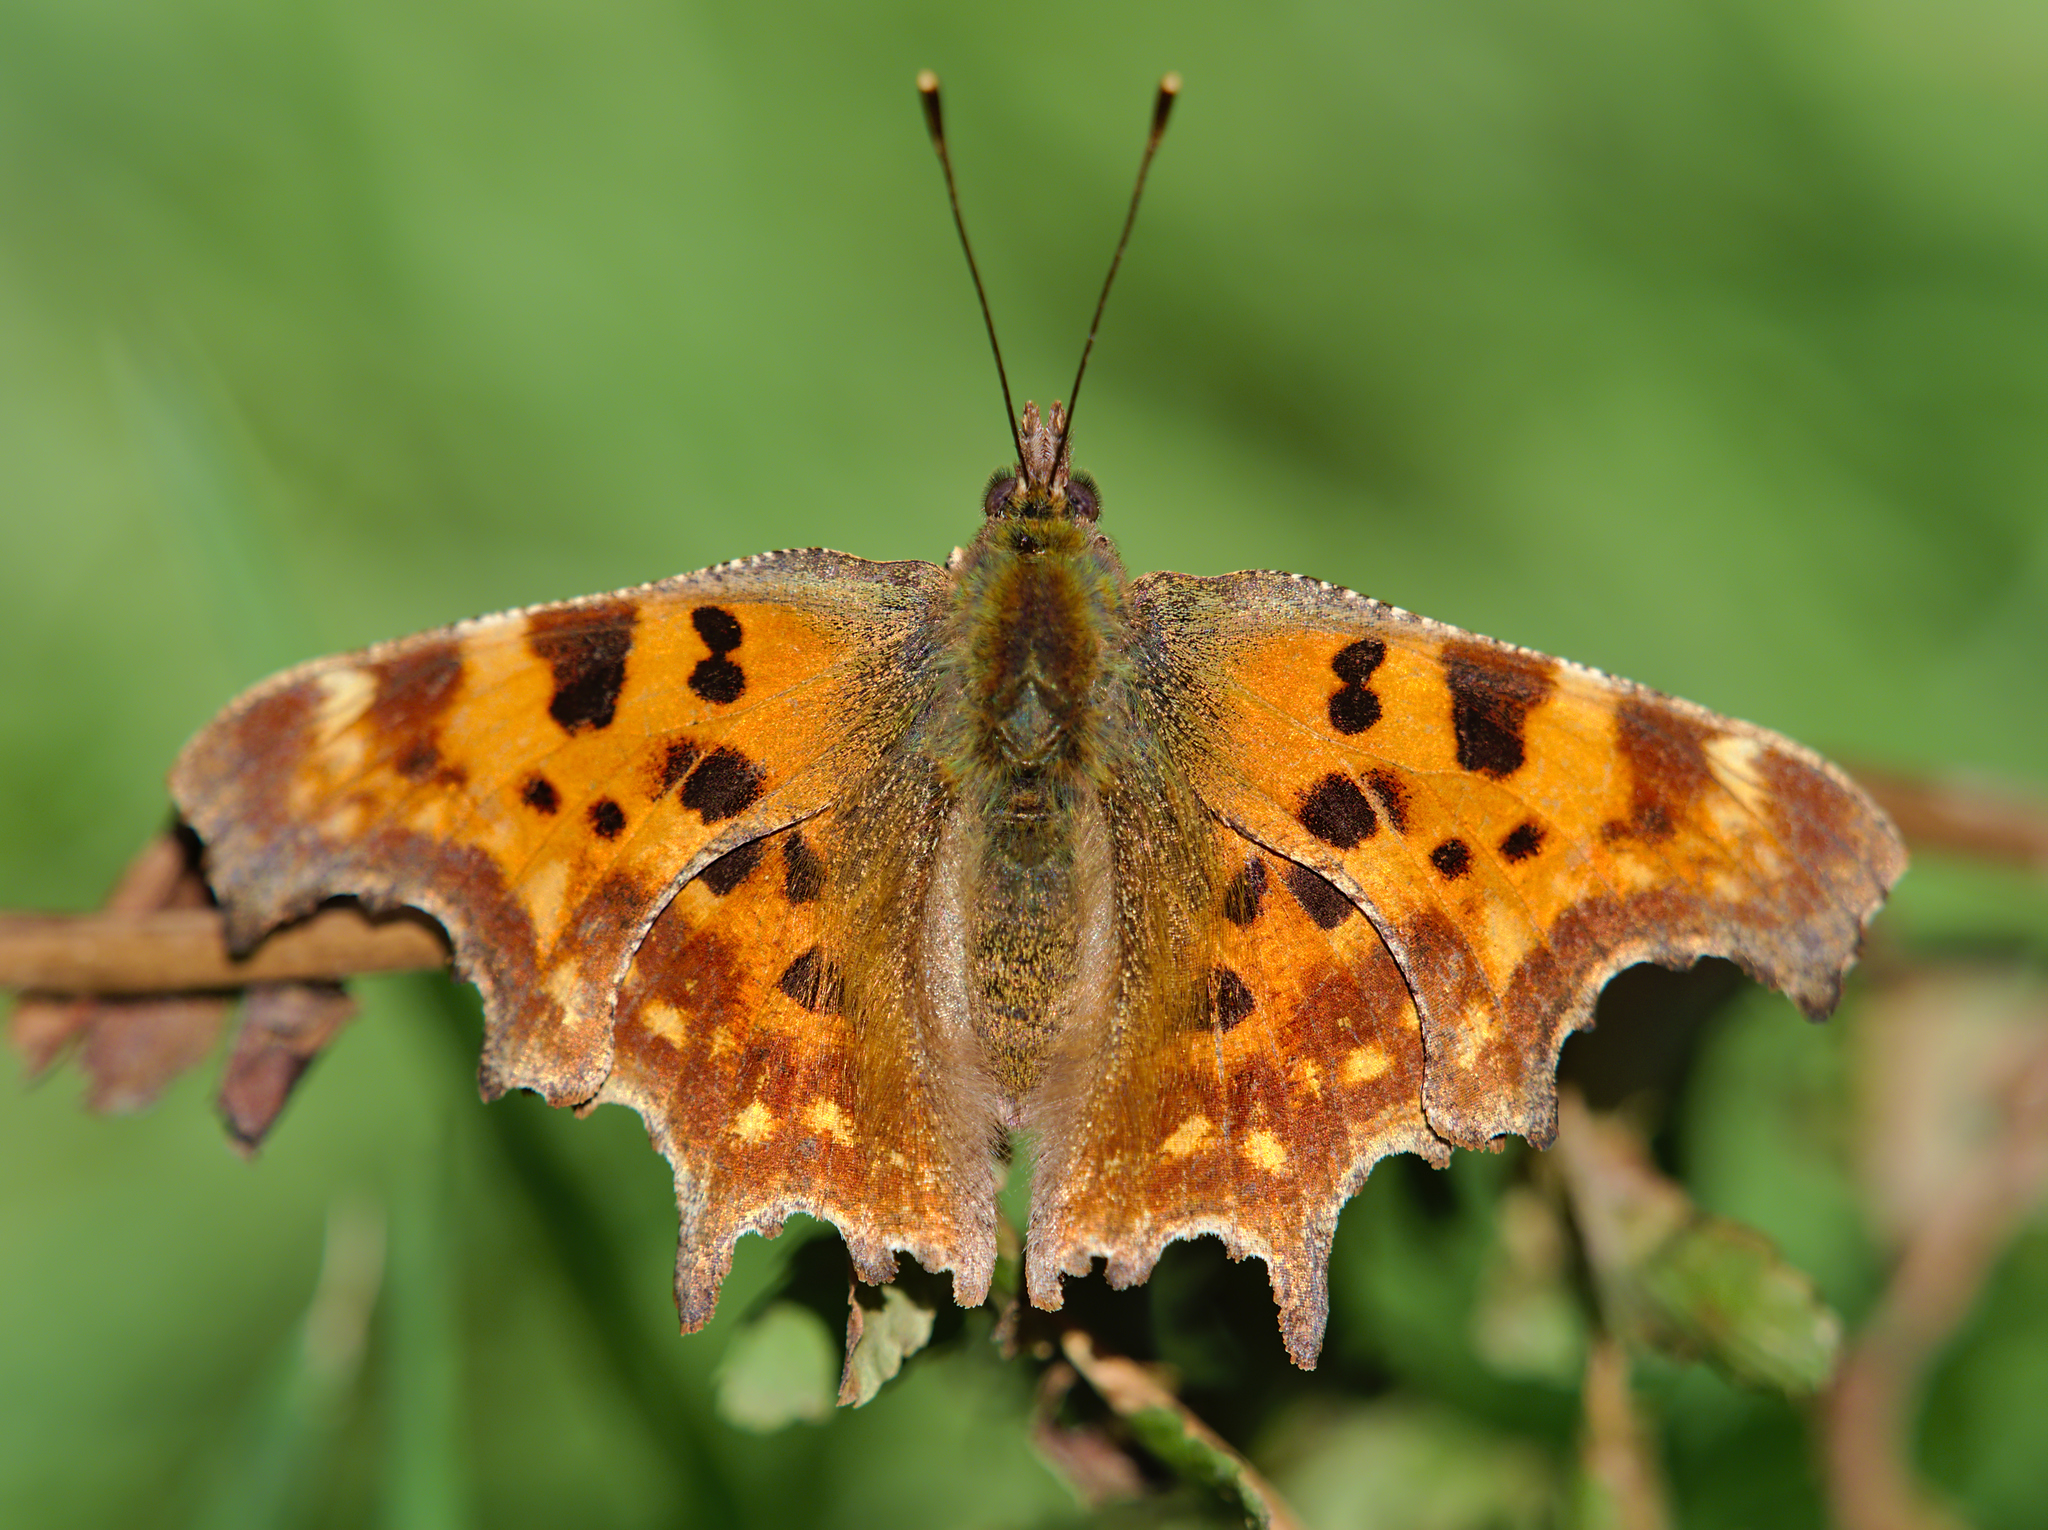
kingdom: Animalia
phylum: Arthropoda
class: Insecta
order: Lepidoptera
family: Nymphalidae
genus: Polygonia
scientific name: Polygonia c-album
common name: Comma
